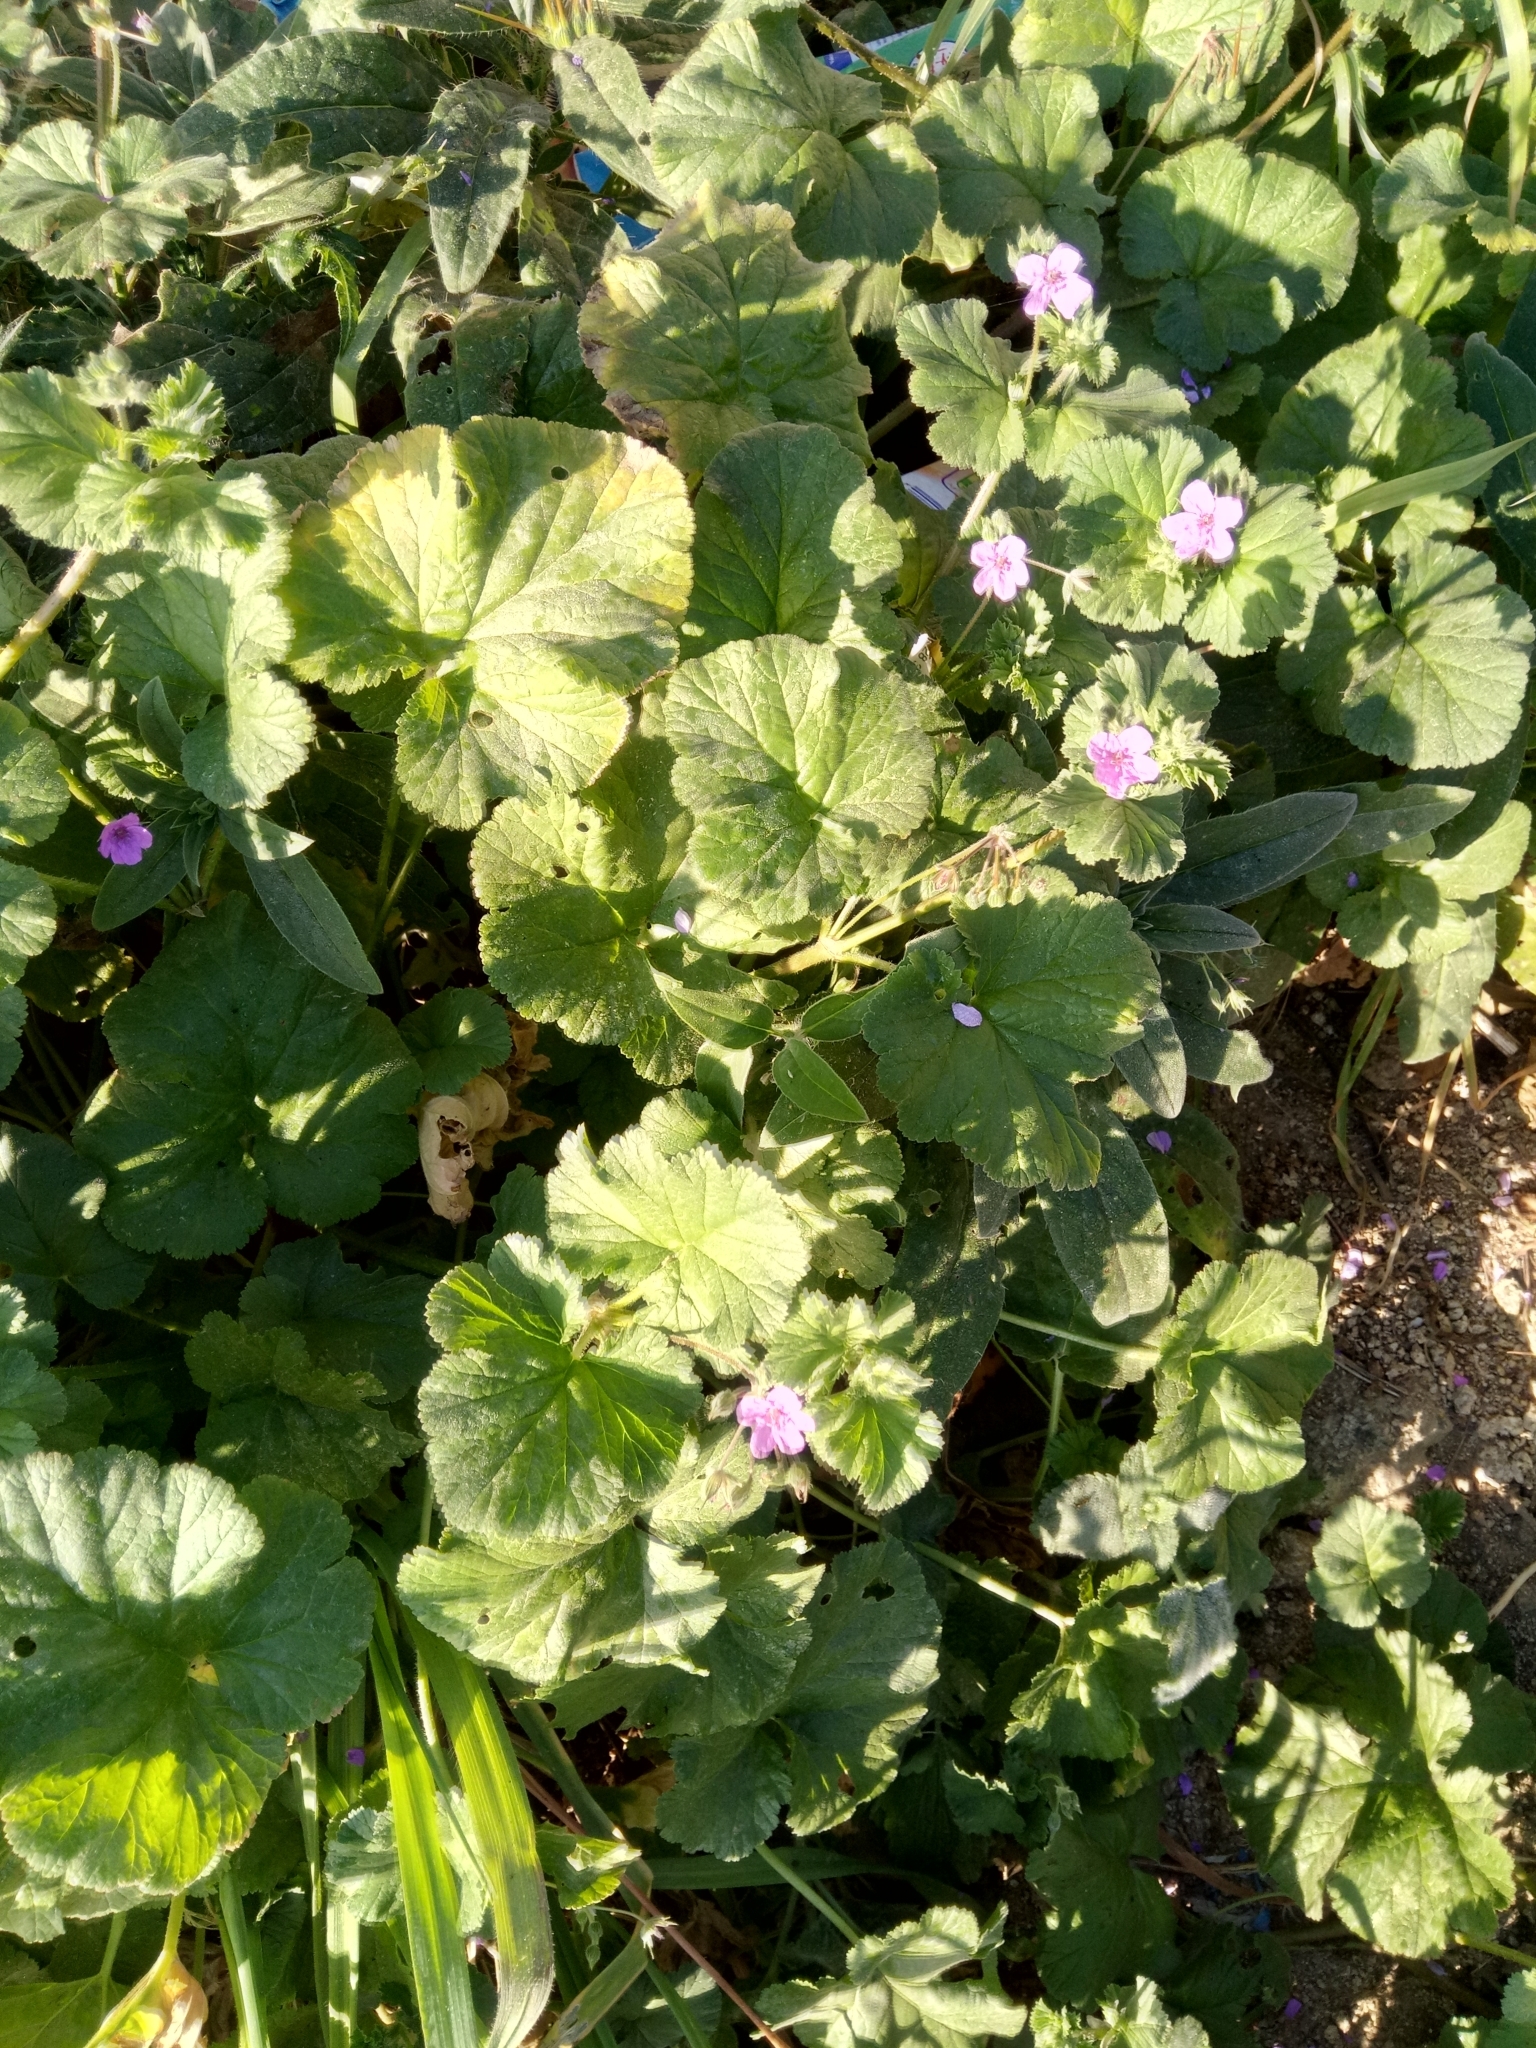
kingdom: Plantae
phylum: Tracheophyta
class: Magnoliopsida
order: Geraniales
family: Geraniaceae
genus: Erodium
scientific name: Erodium malacoides
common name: Soft stork's-bill
